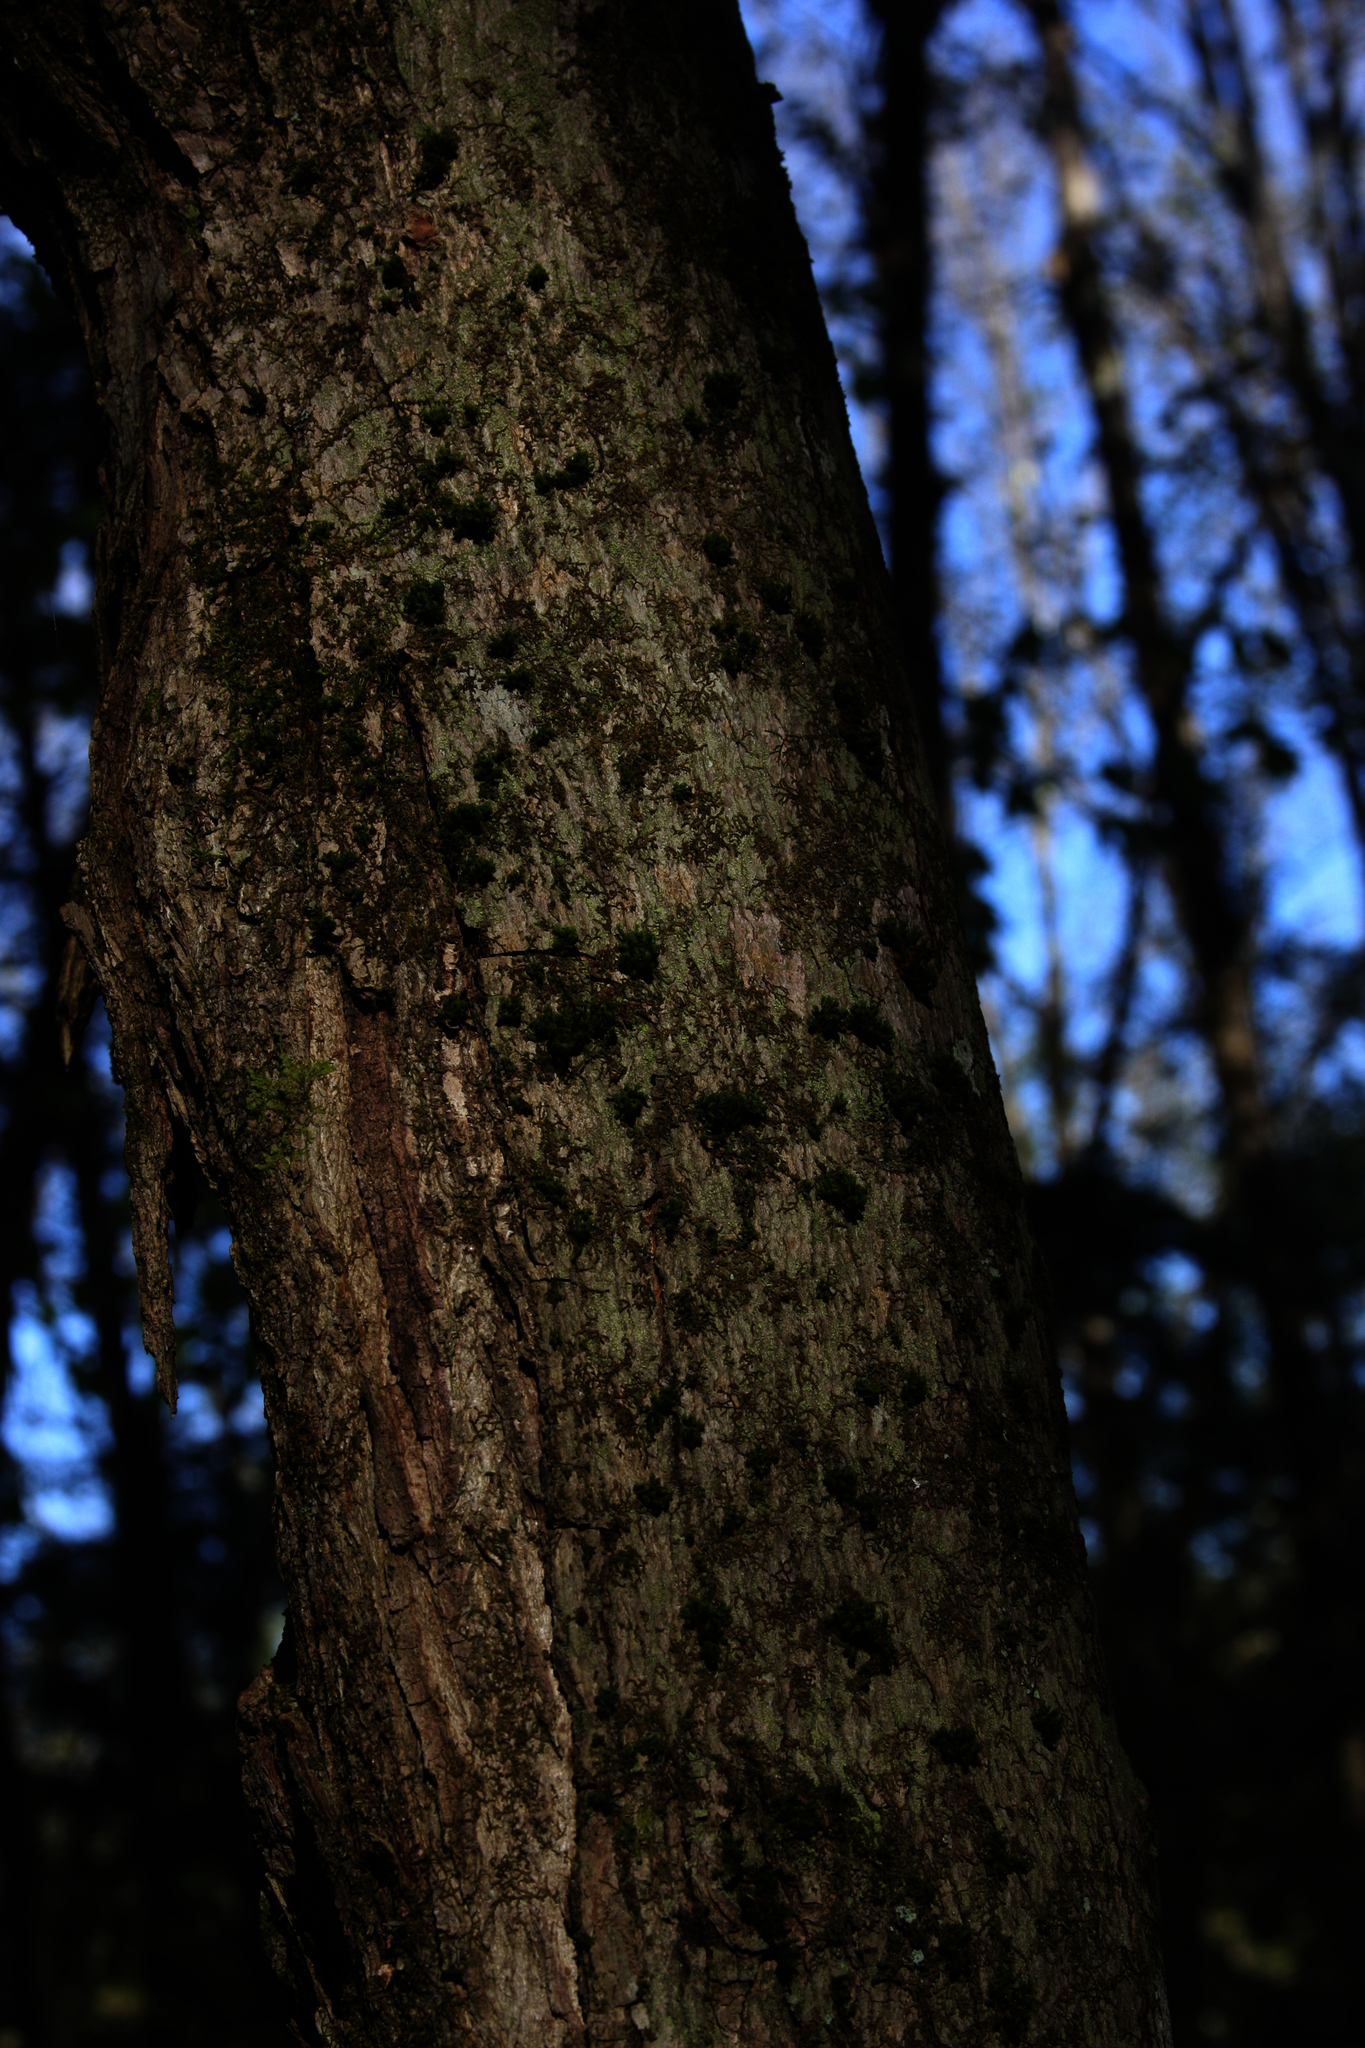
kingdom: Plantae
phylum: Bryophyta
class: Bryopsida
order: Orthotrichales
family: Orthotrichaceae
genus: Ulota
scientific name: Ulota crispa
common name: Crisped pincushion moss
